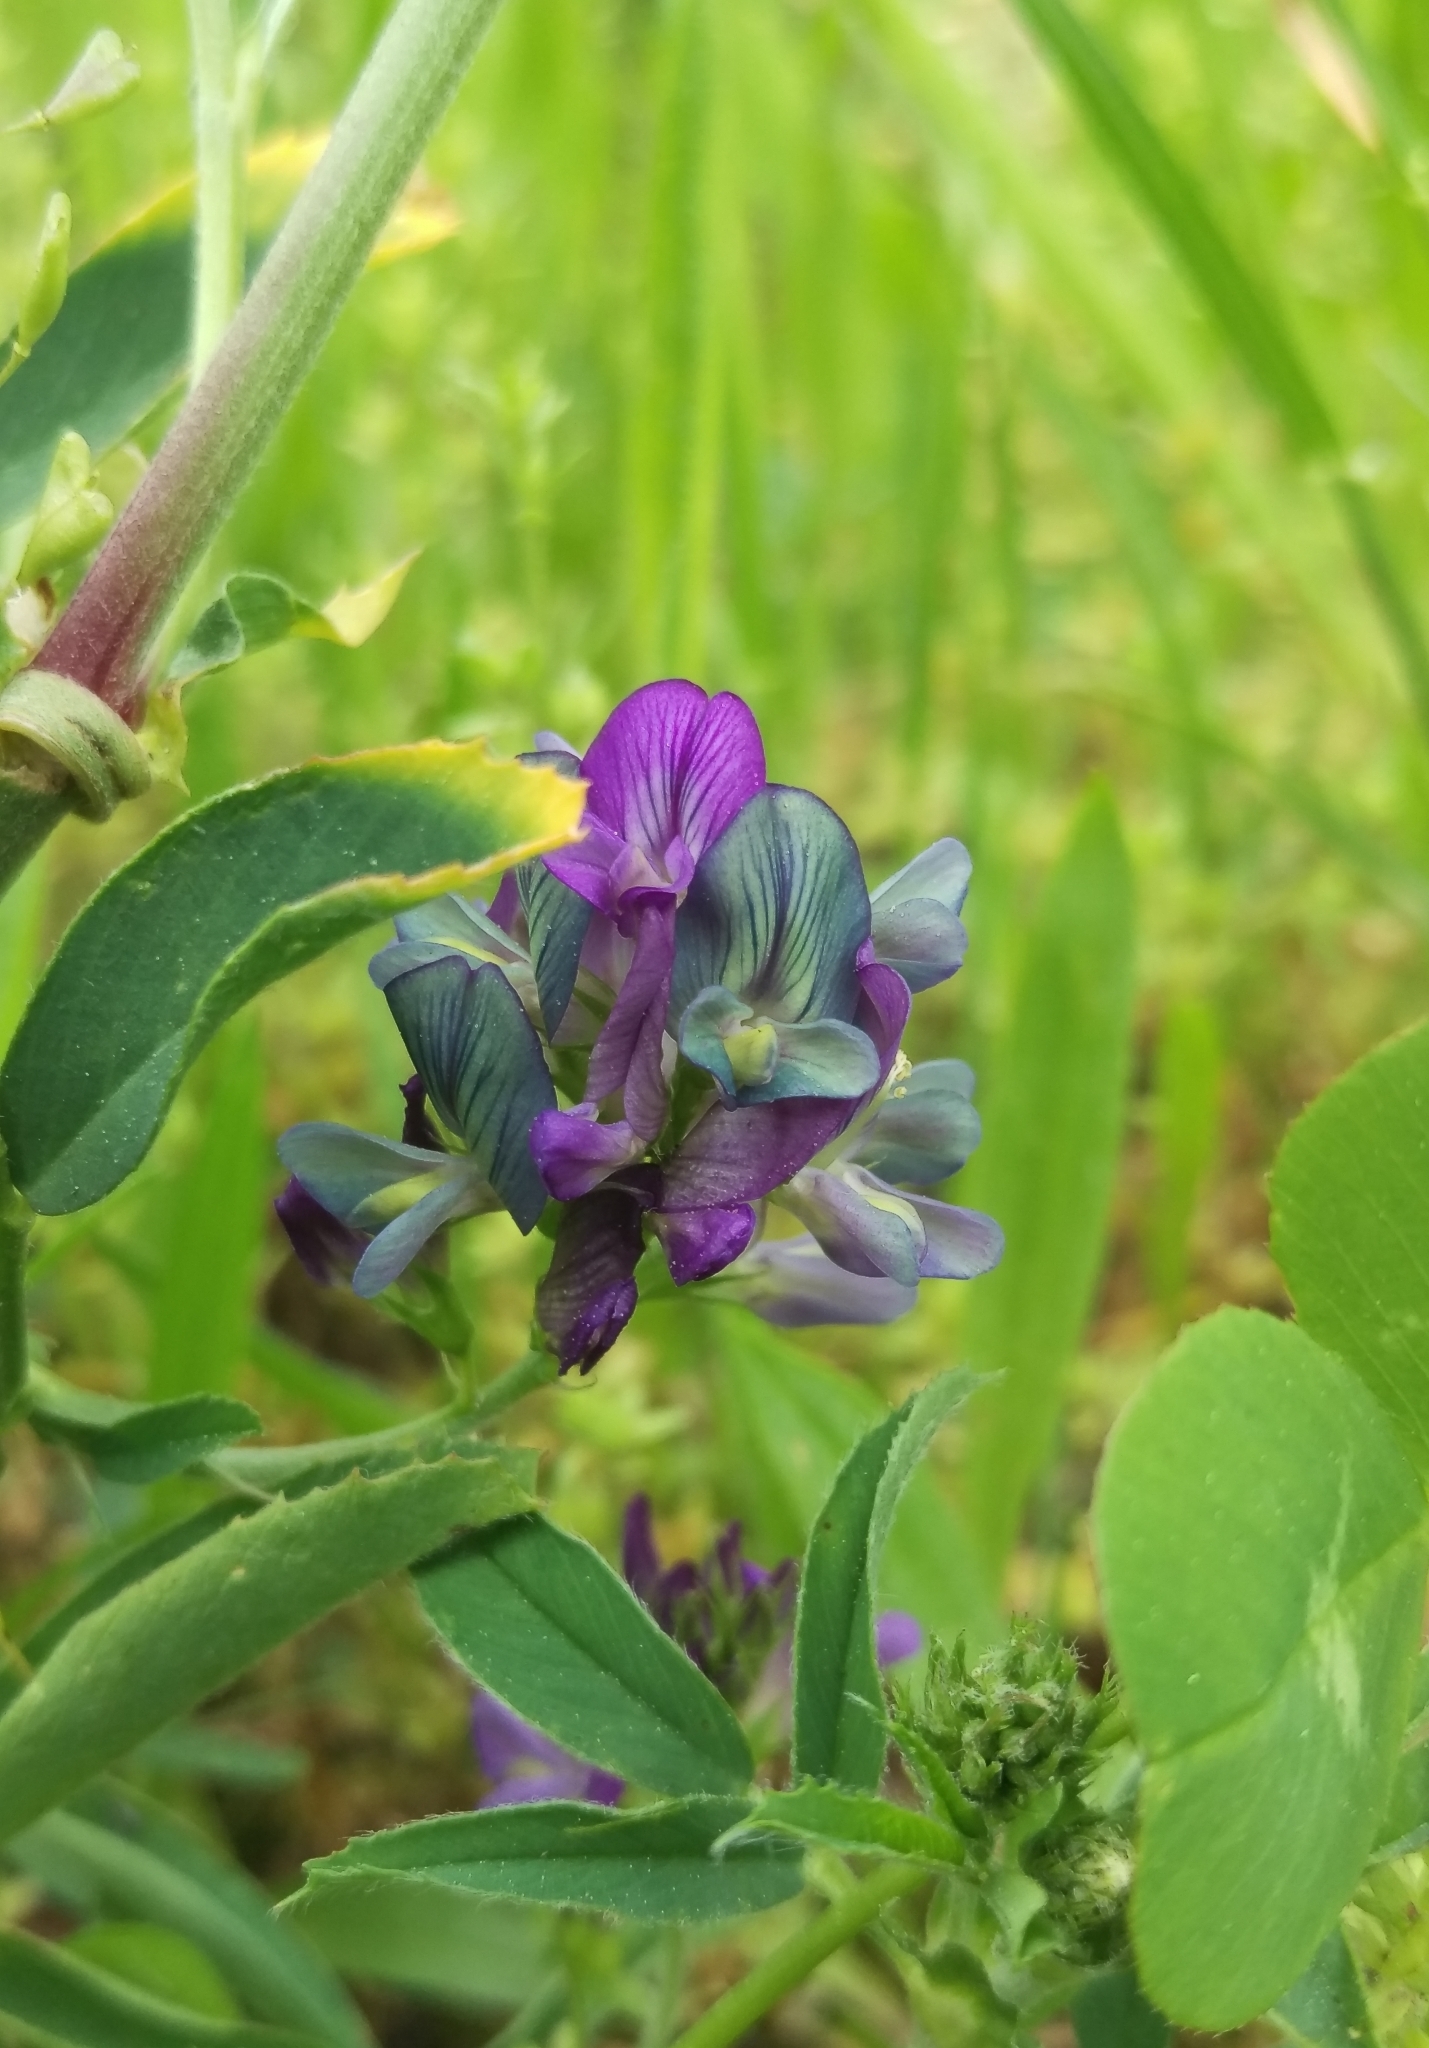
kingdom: Plantae
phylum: Tracheophyta
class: Magnoliopsida
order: Fabales
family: Fabaceae
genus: Medicago
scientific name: Medicago varia
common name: Sand lucerne
